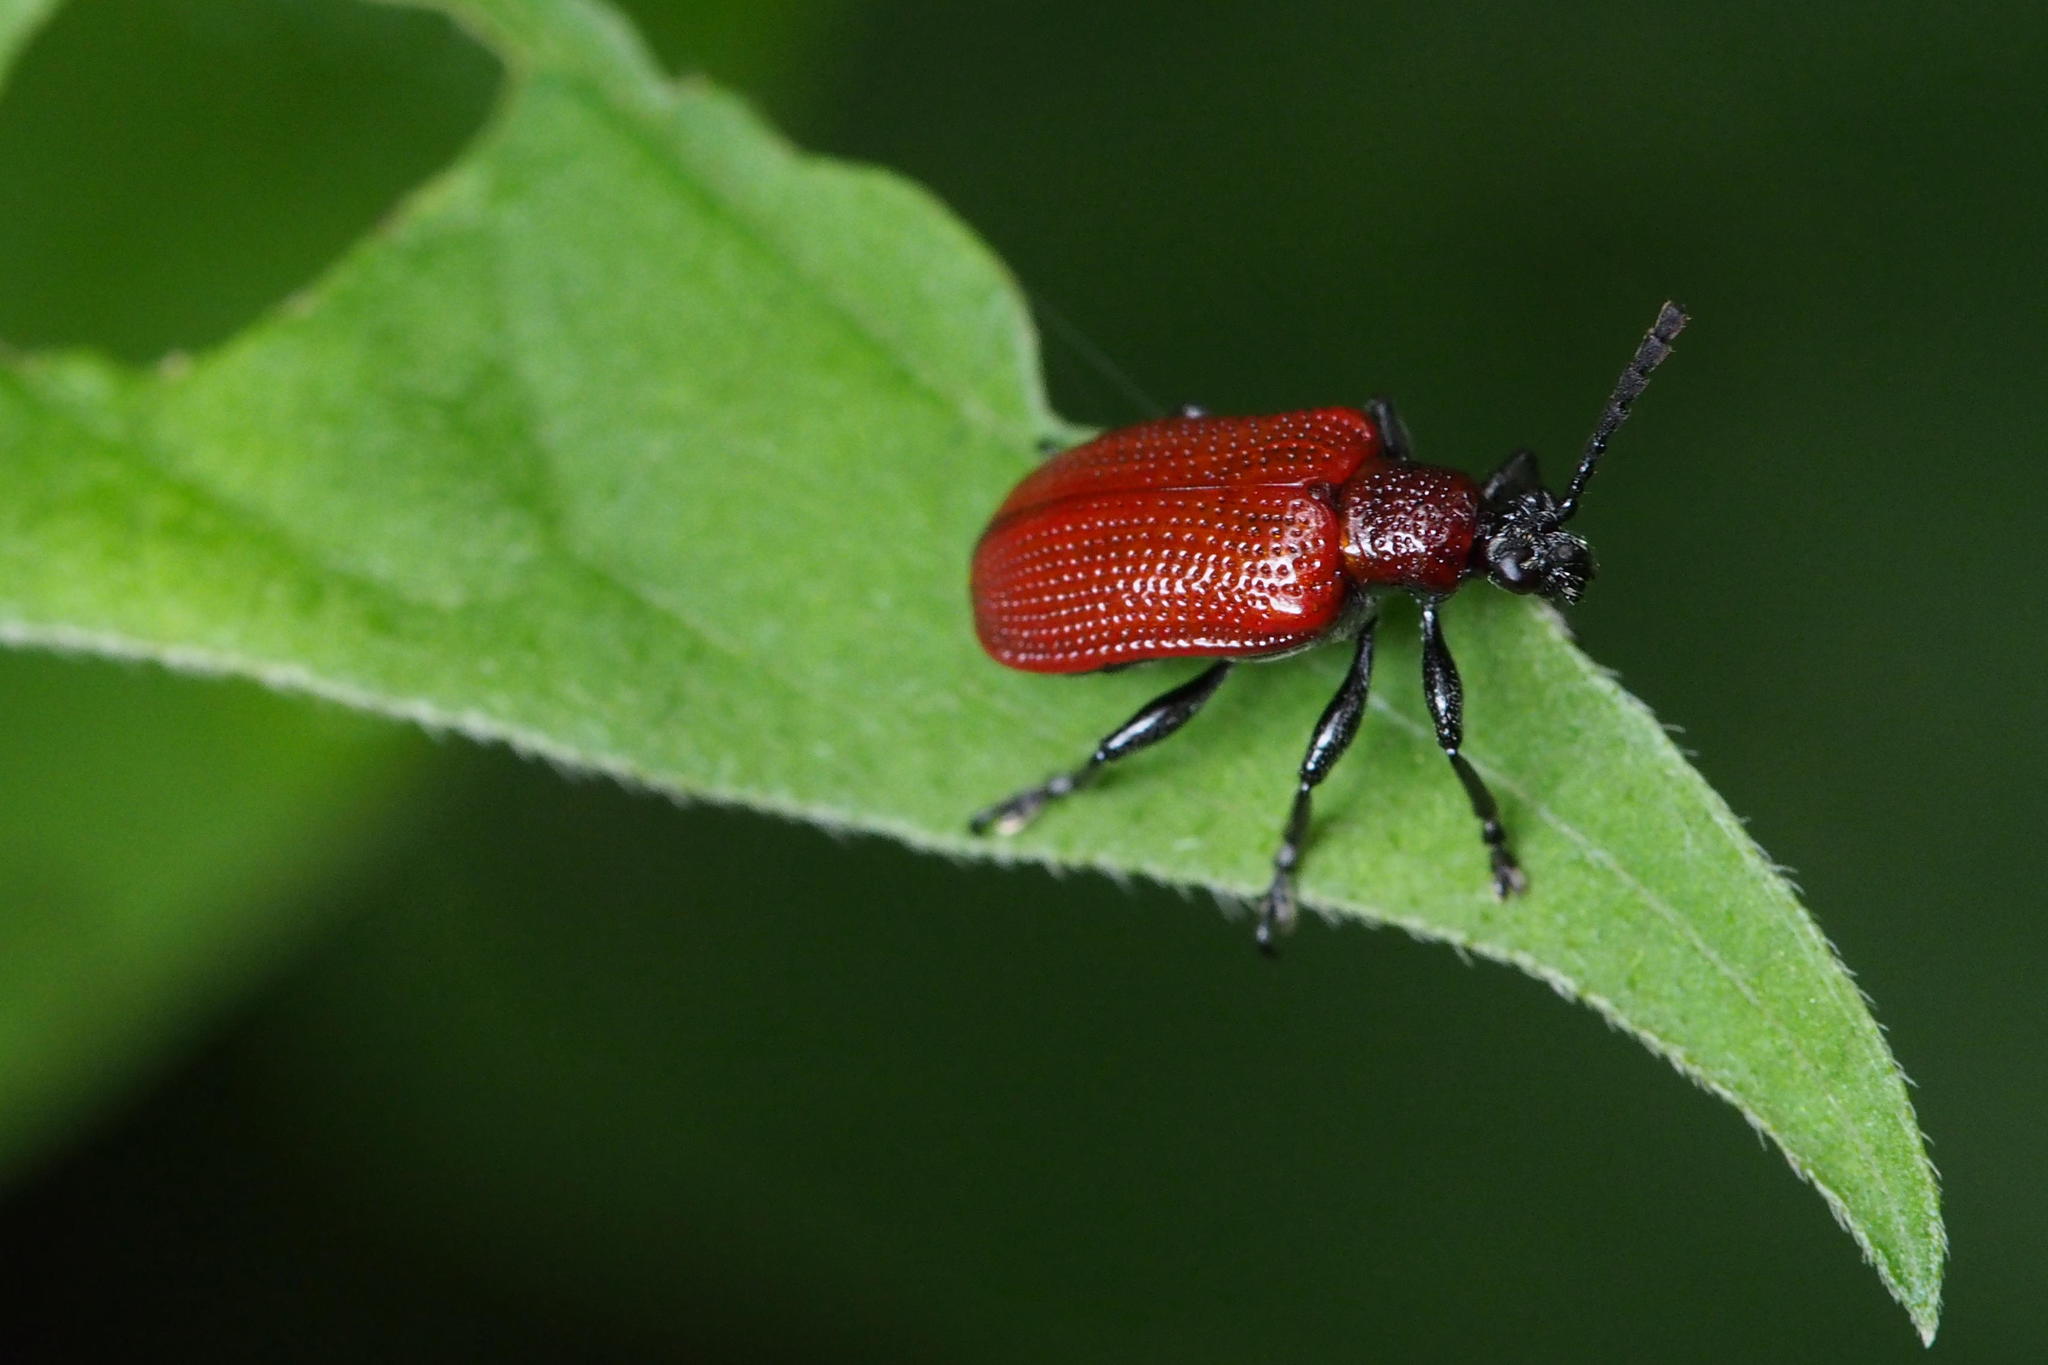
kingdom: Animalia
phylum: Arthropoda
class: Insecta
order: Coleoptera
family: Chrysomelidae
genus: Lilioceris
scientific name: Lilioceris rugata
